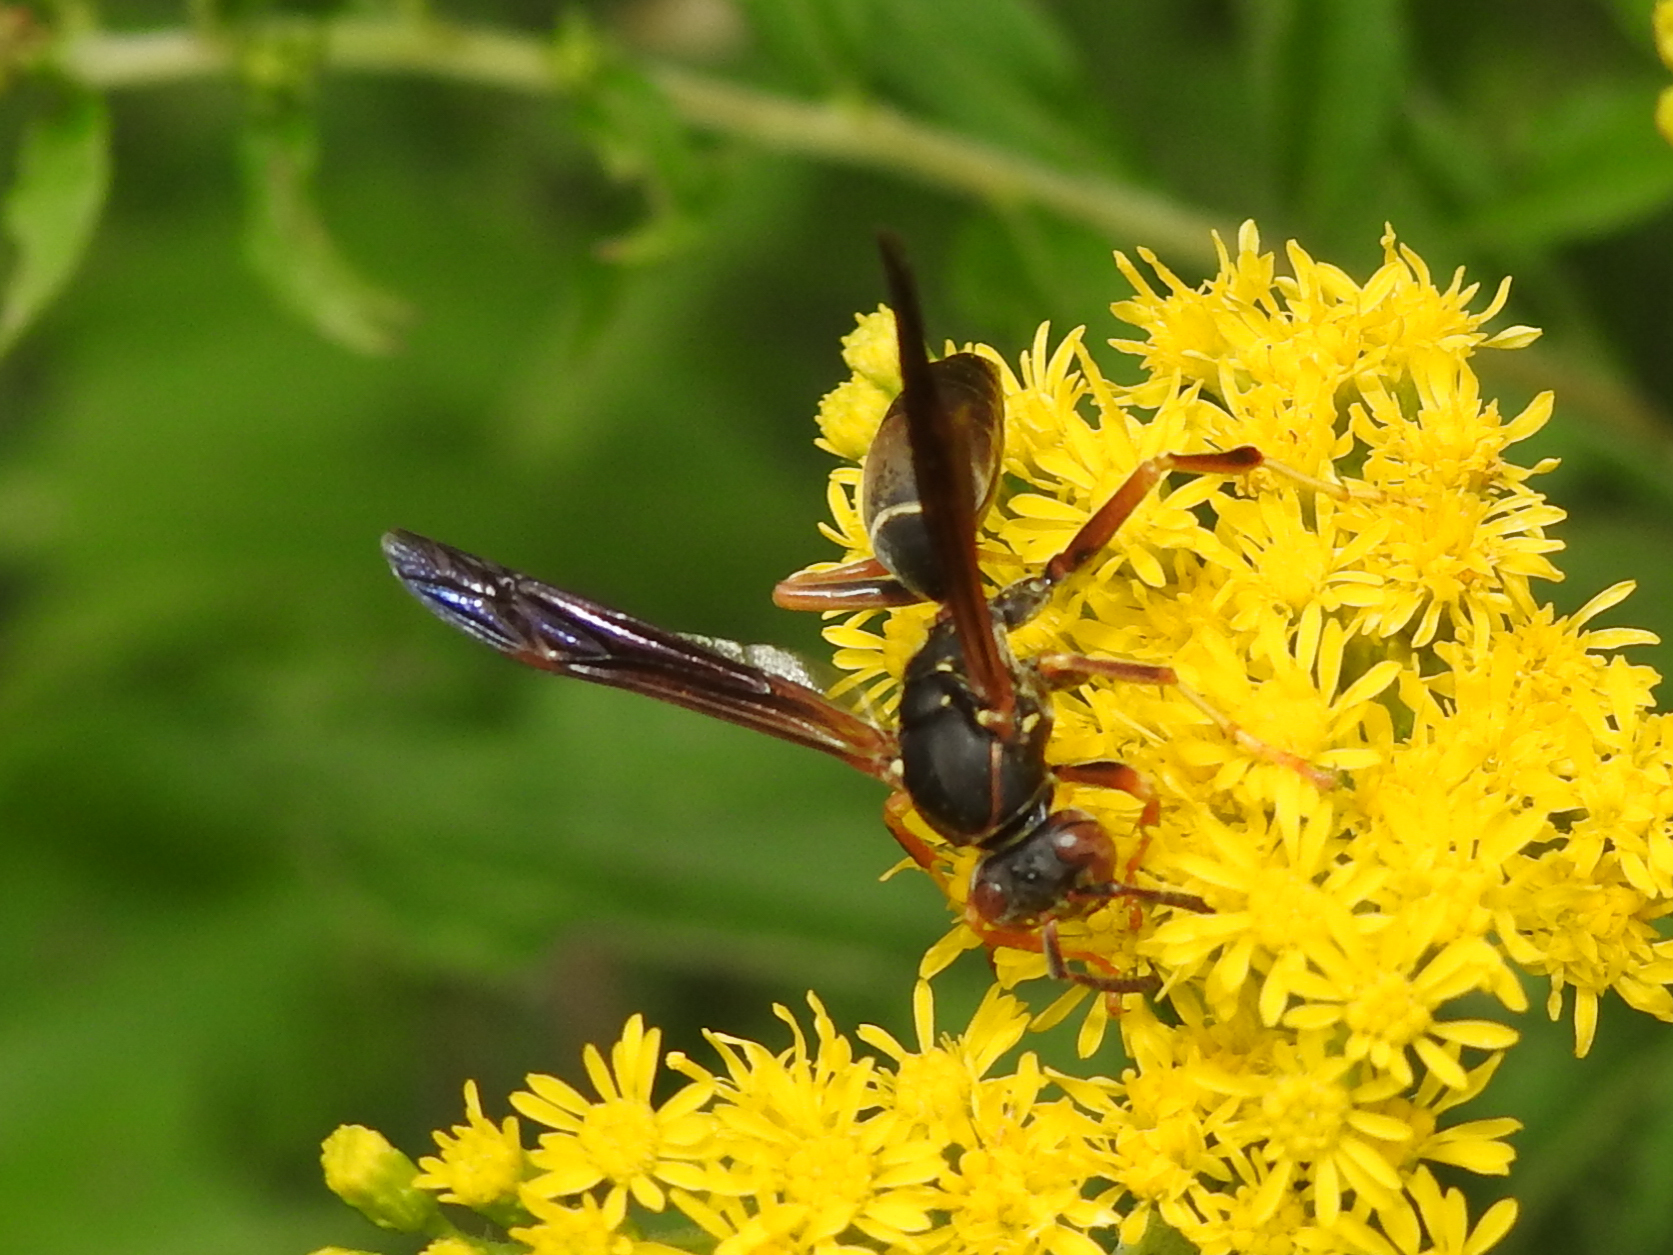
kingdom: Animalia
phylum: Arthropoda
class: Insecta
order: Hymenoptera
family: Eumenidae
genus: Polistes
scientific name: Polistes fuscatus
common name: Dark paper wasp
